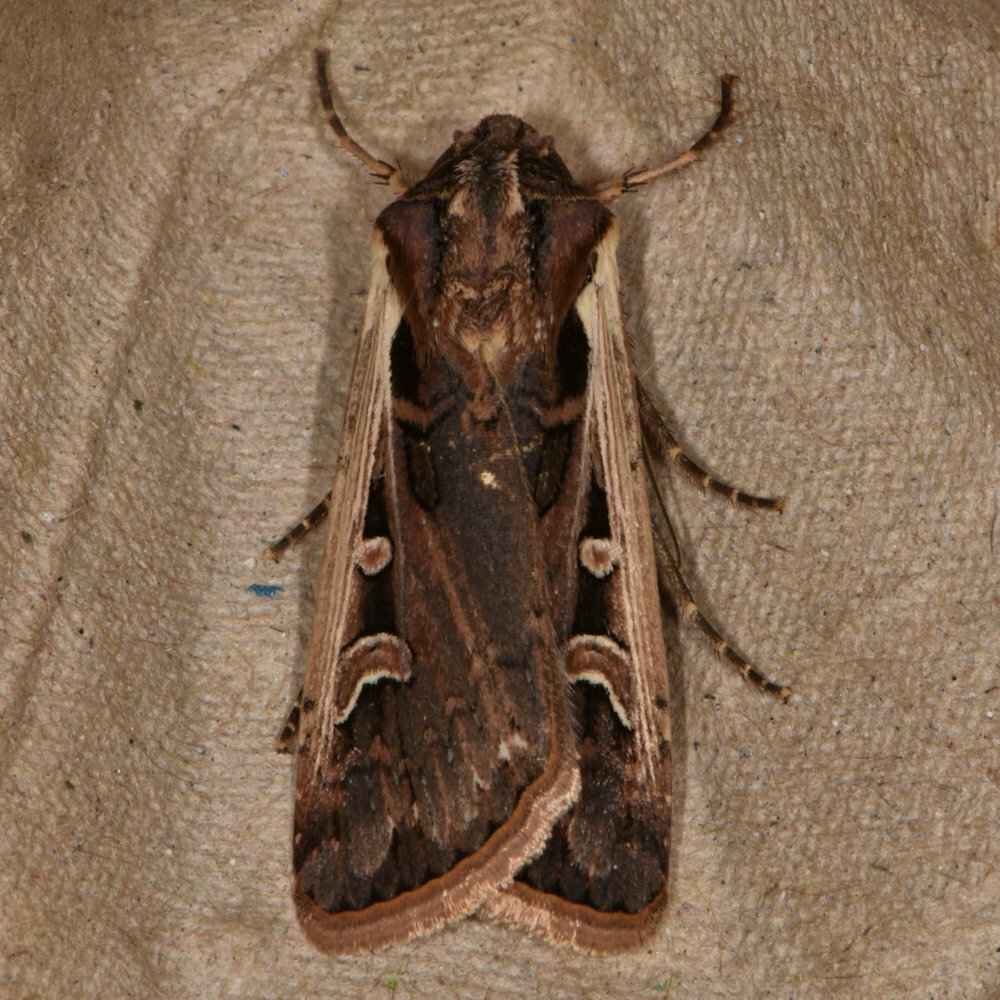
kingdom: Animalia
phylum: Arthropoda
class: Insecta
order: Lepidoptera
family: Noctuidae
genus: Striacosta
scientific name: Striacosta albicosta
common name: Western bean cutworm moth
